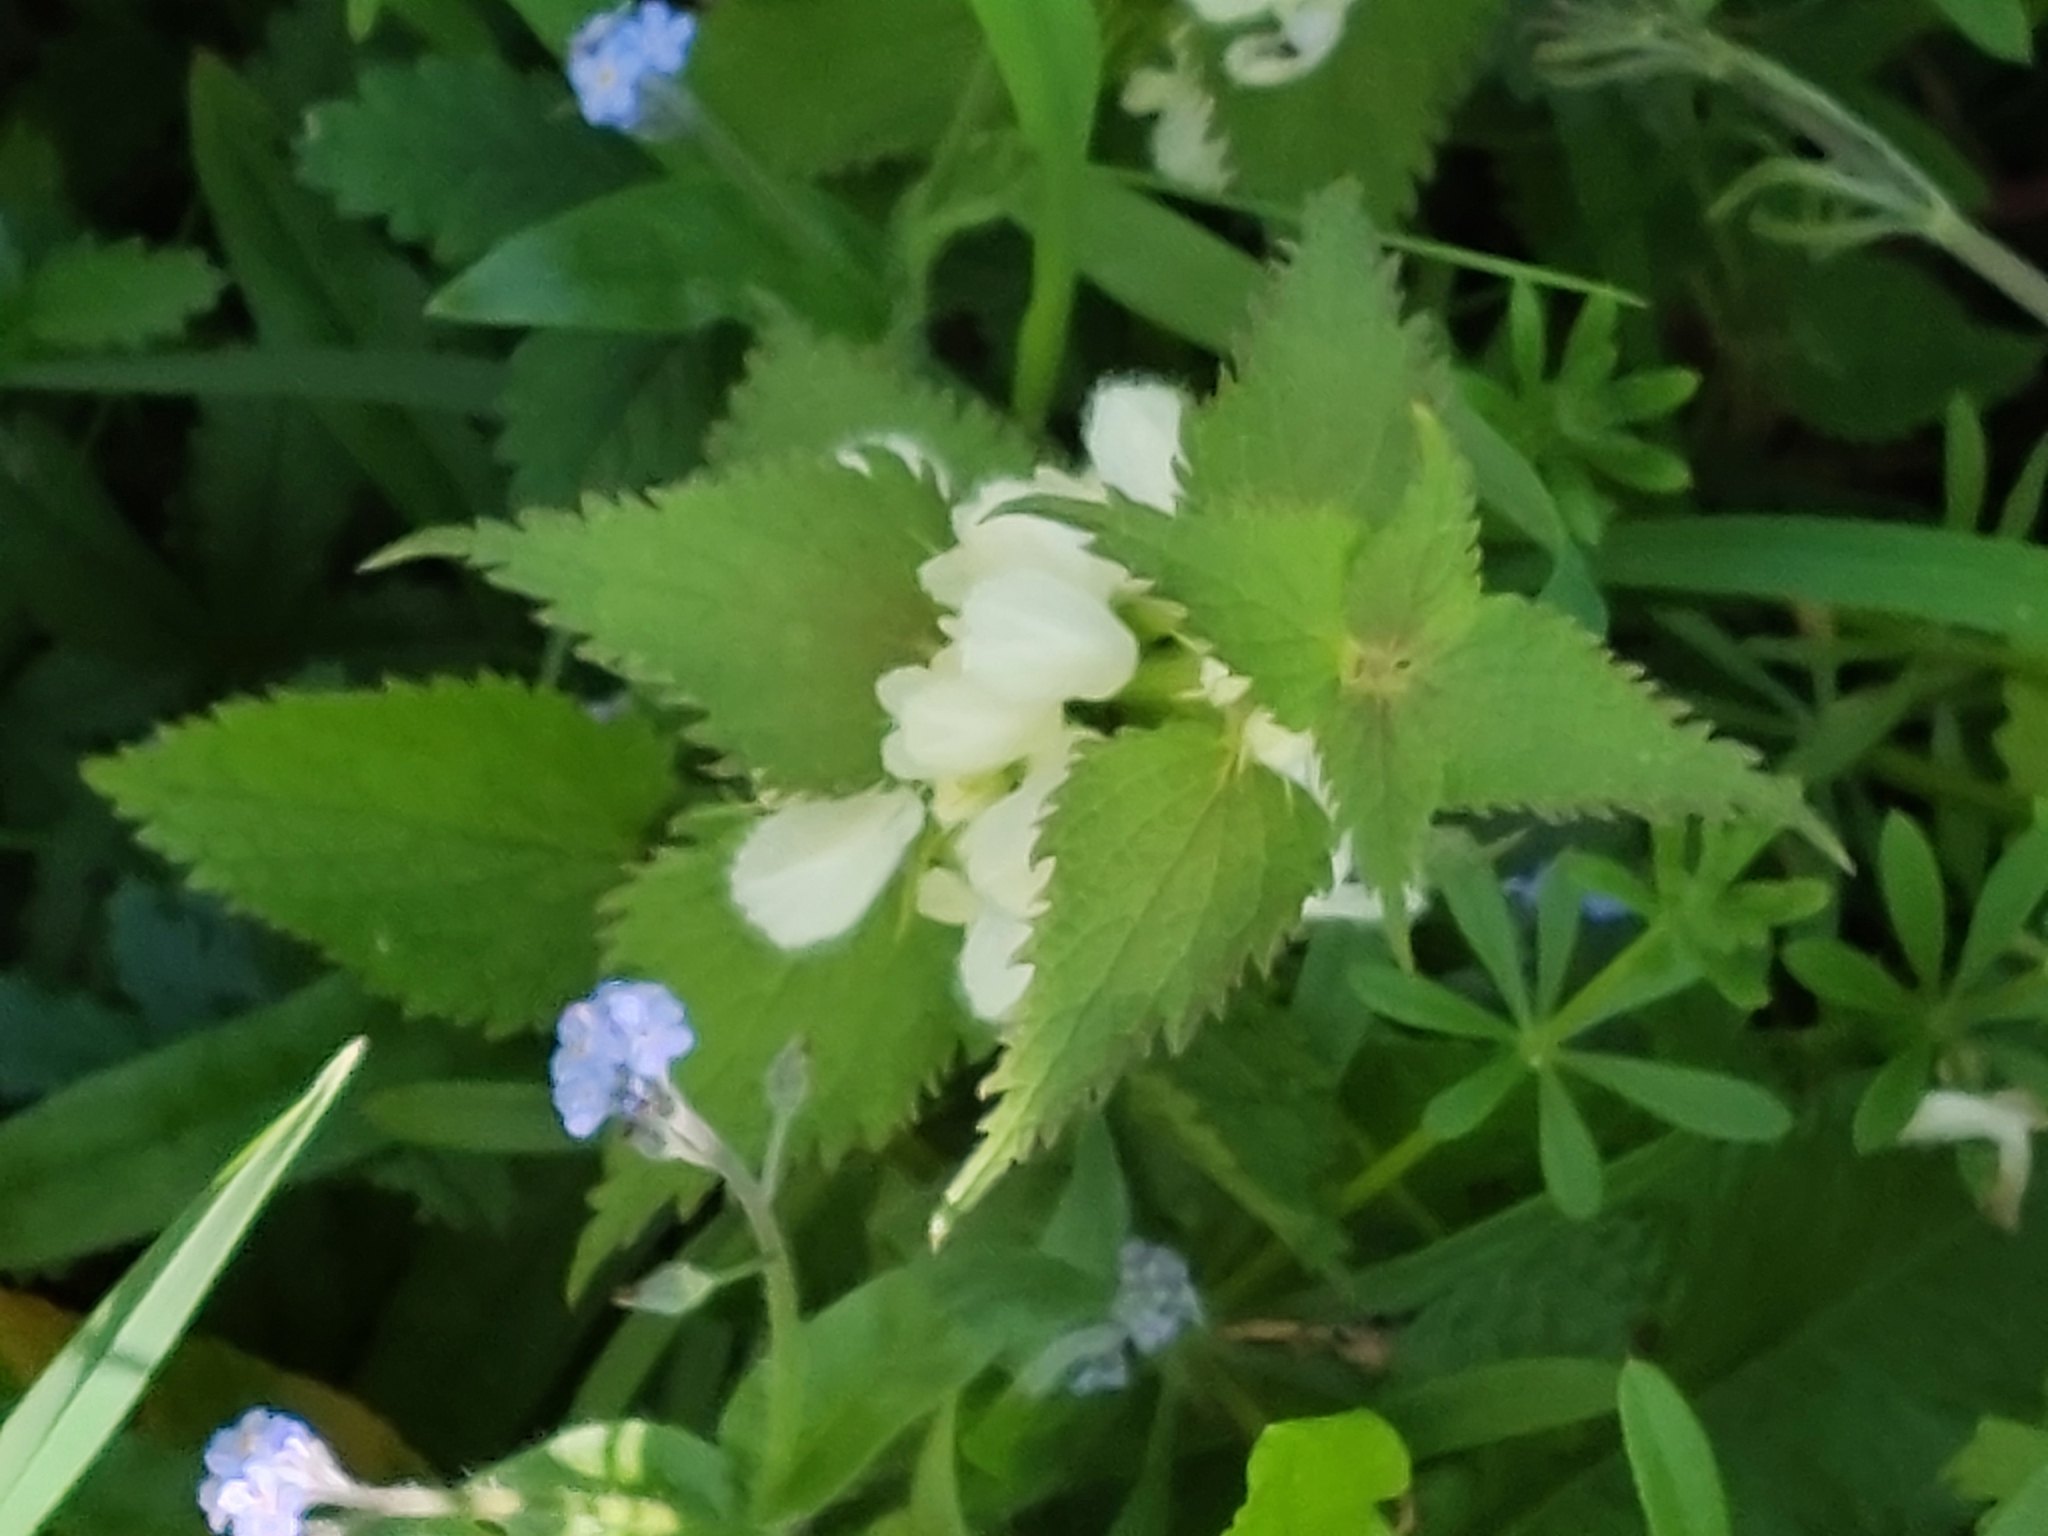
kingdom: Plantae
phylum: Tracheophyta
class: Magnoliopsida
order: Lamiales
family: Lamiaceae
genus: Lamium
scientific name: Lamium album
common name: White dead-nettle
